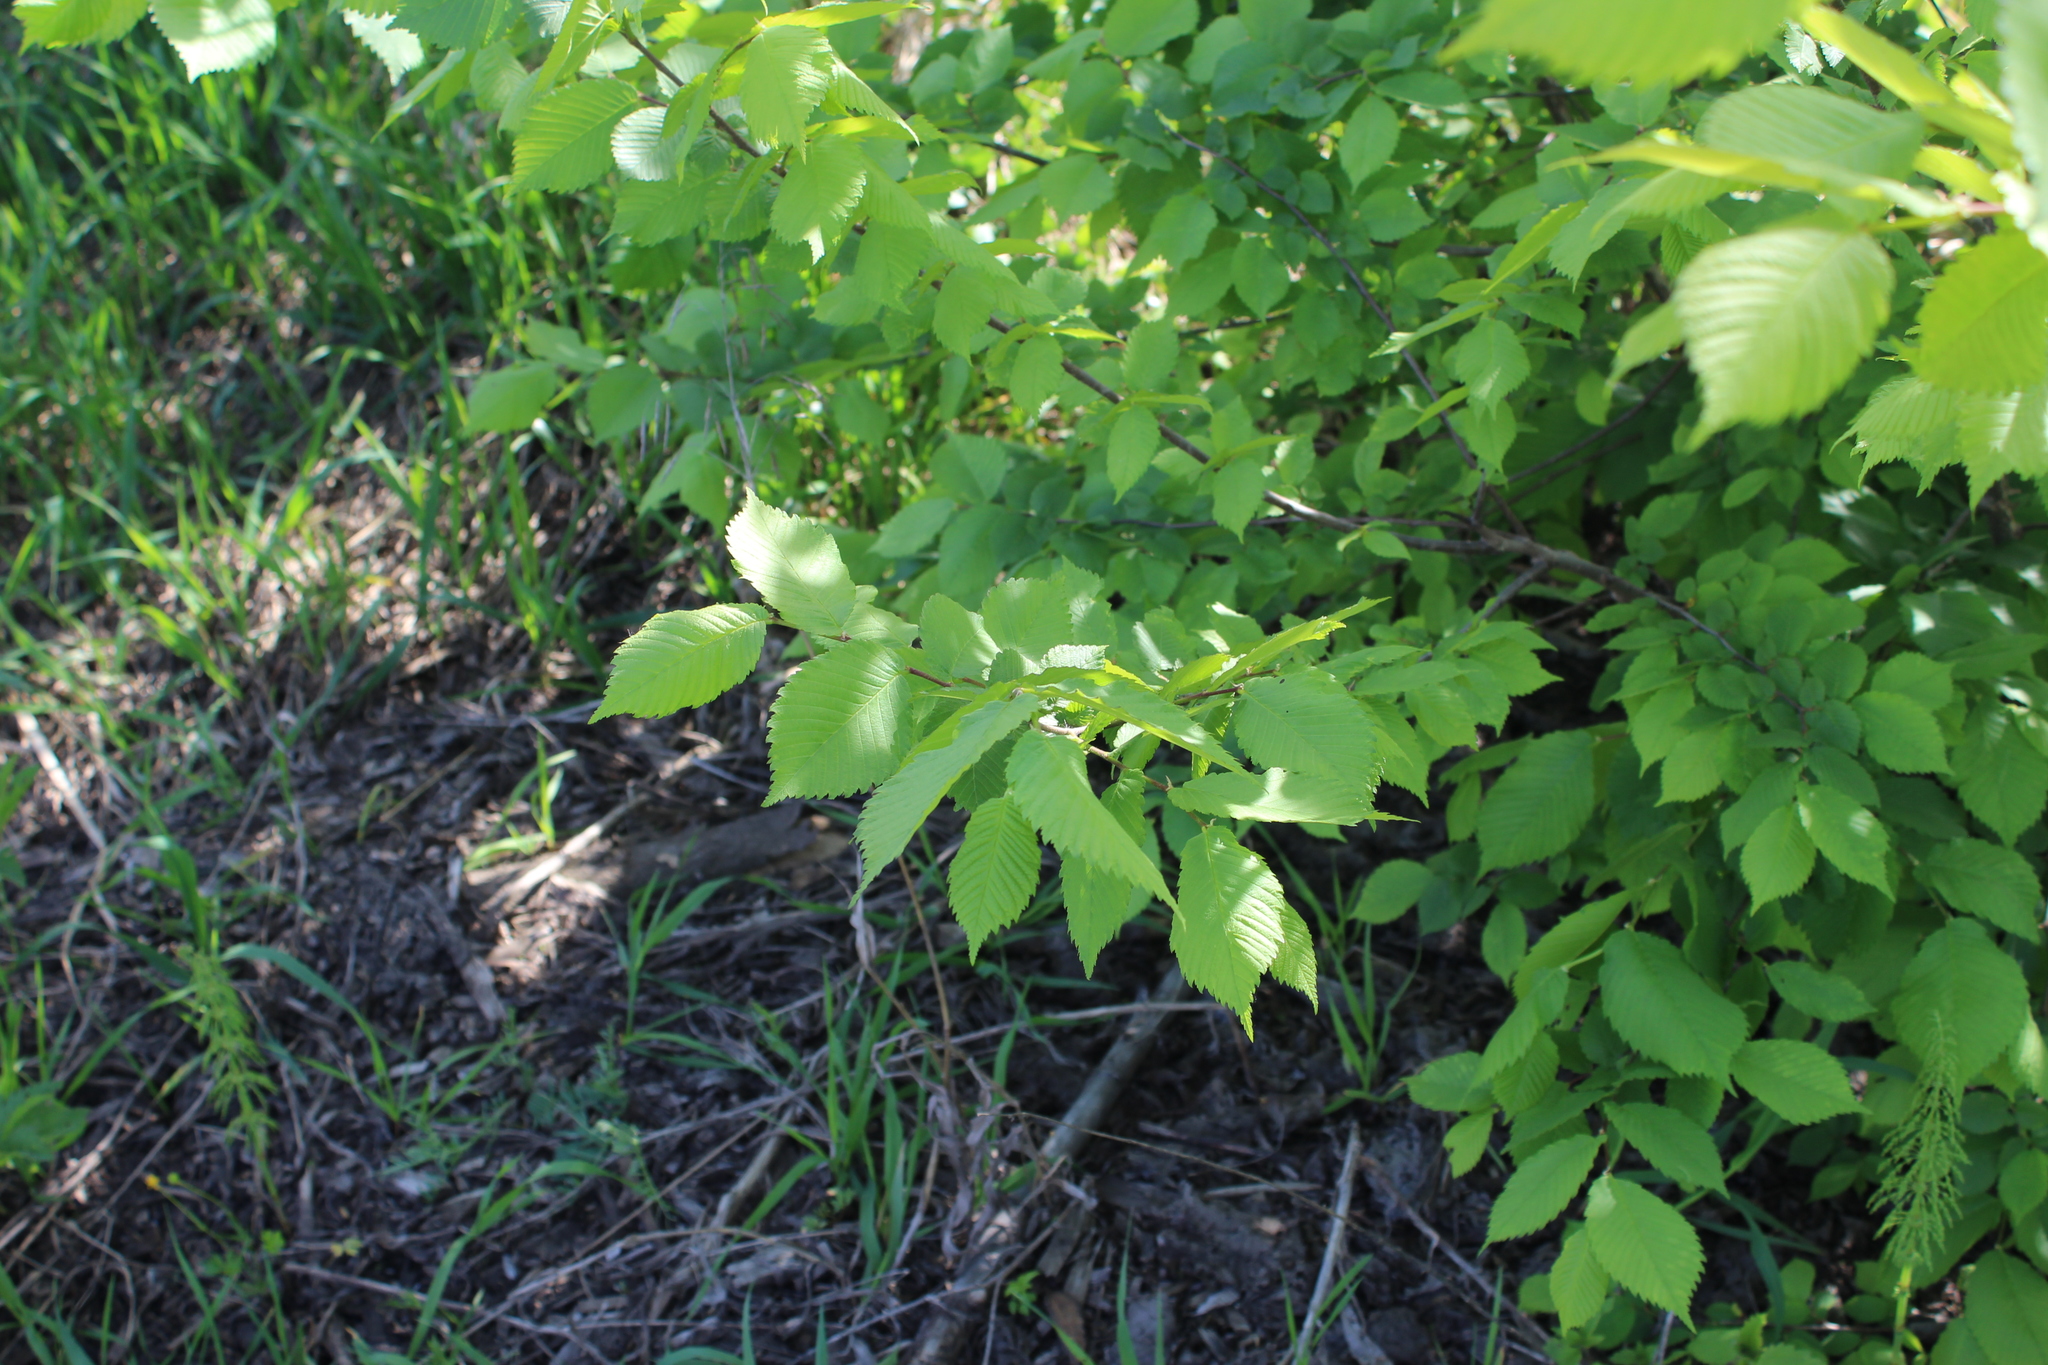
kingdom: Plantae
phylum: Tracheophyta
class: Magnoliopsida
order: Rosales
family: Ulmaceae
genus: Ulmus
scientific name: Ulmus laevis
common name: European white-elm
